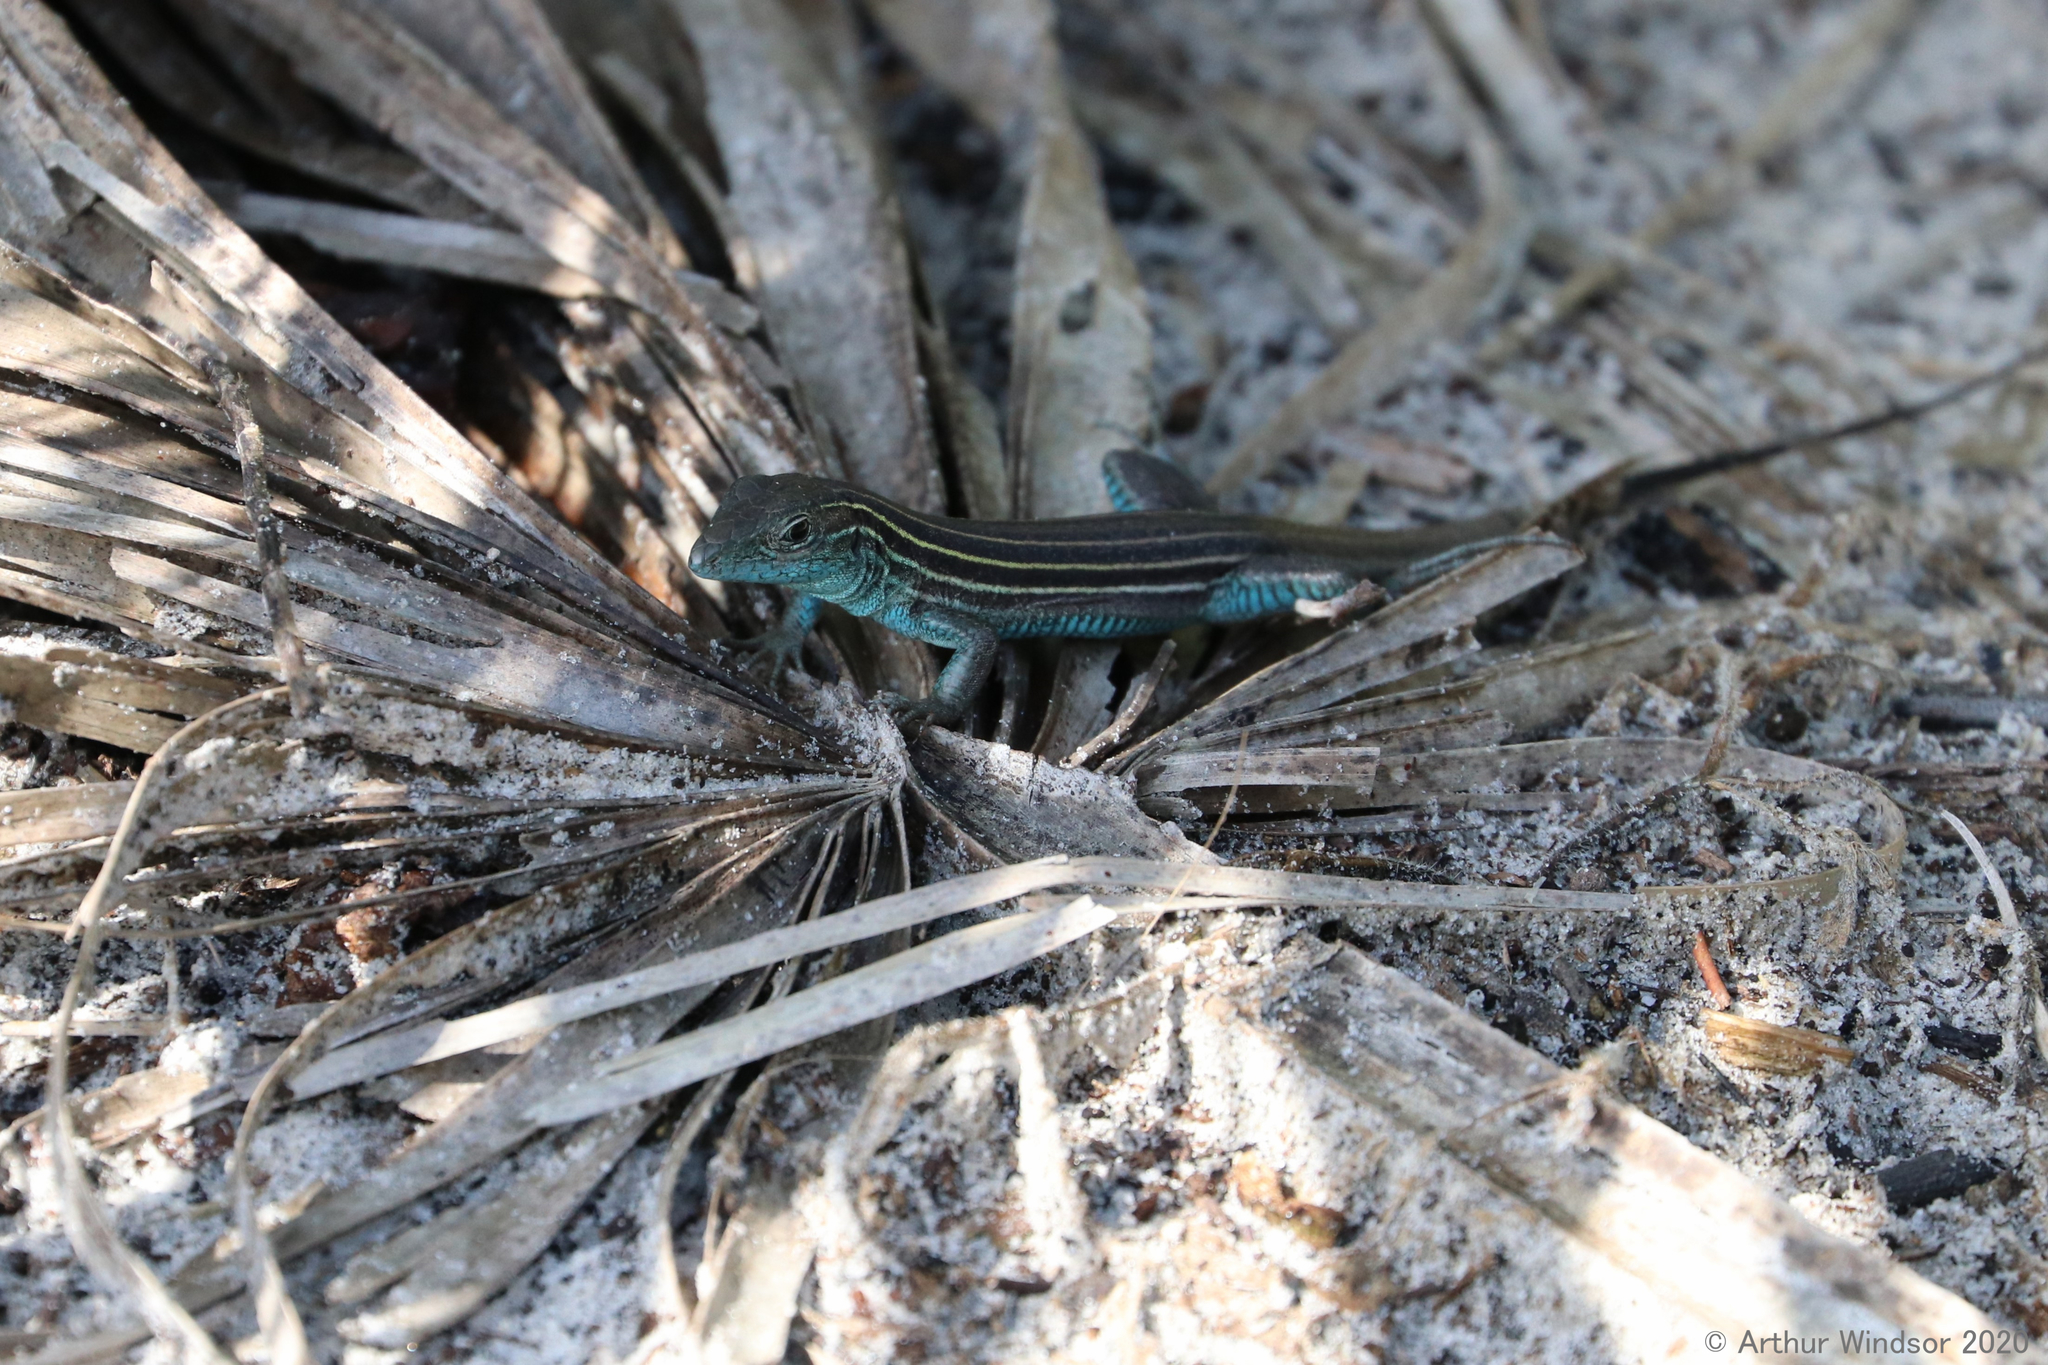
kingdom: Animalia
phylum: Chordata
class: Squamata
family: Teiidae
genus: Aspidoscelis
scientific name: Aspidoscelis sexlineatus
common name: Six-lined racerunner
